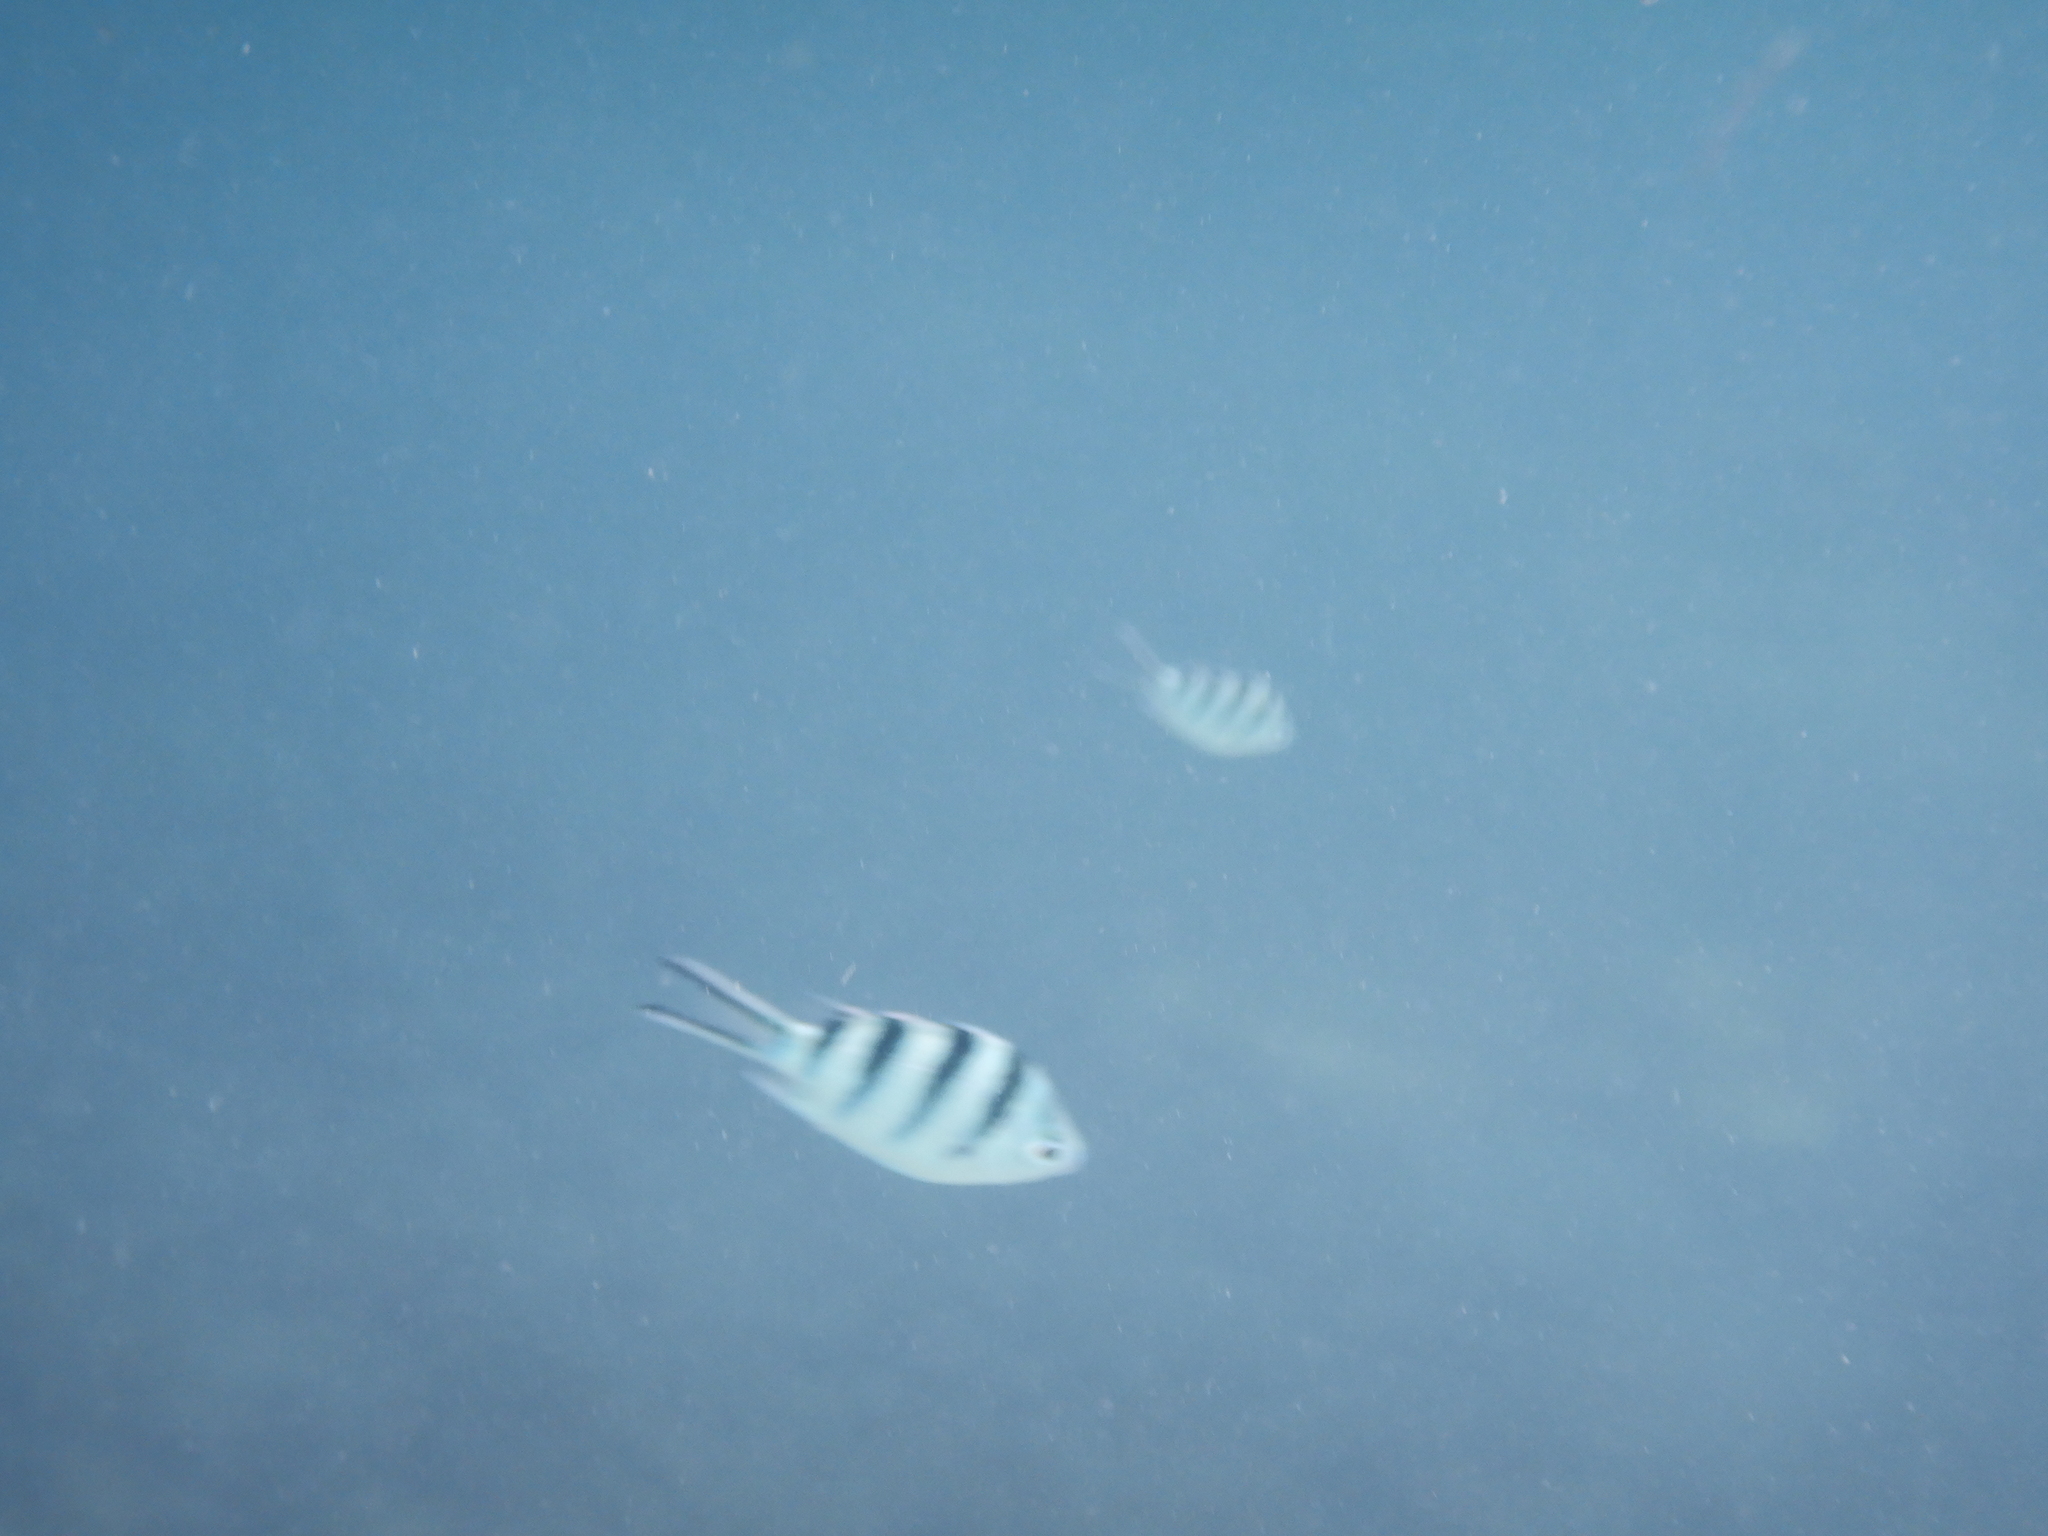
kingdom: Animalia
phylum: Chordata
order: Perciformes
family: Pomacentridae
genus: Abudefduf
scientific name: Abudefduf sexfasciatus
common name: Scissortail sergeant
